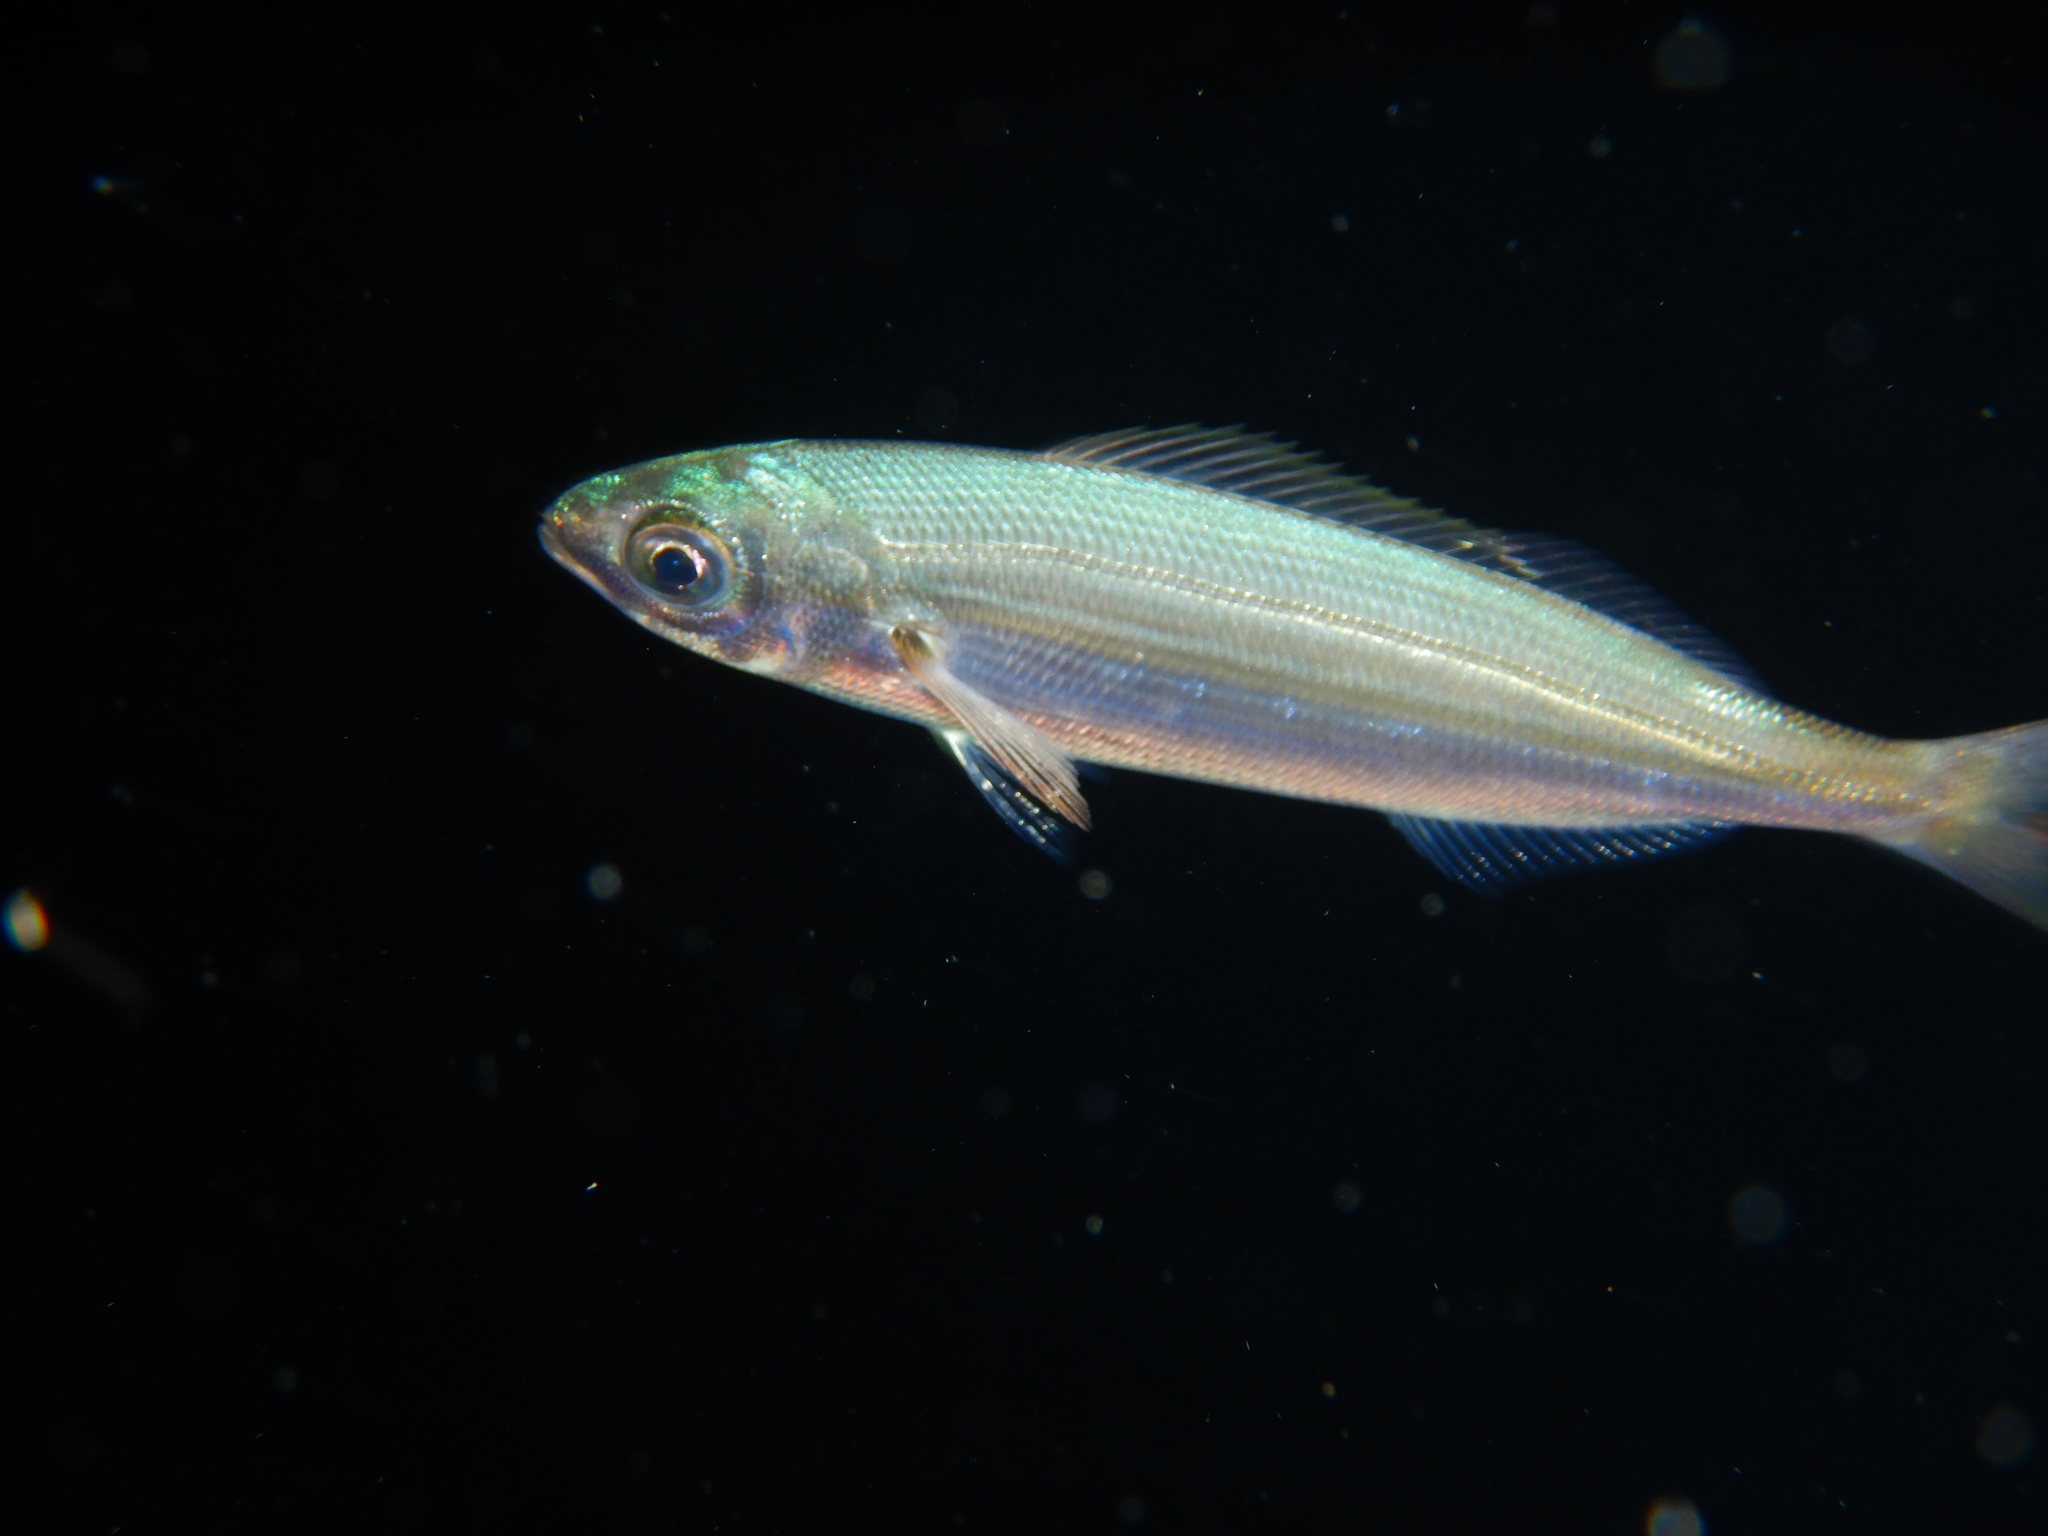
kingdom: Animalia
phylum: Chordata
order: Perciformes
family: Sparidae
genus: Boops
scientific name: Boops boops
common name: Bogue
